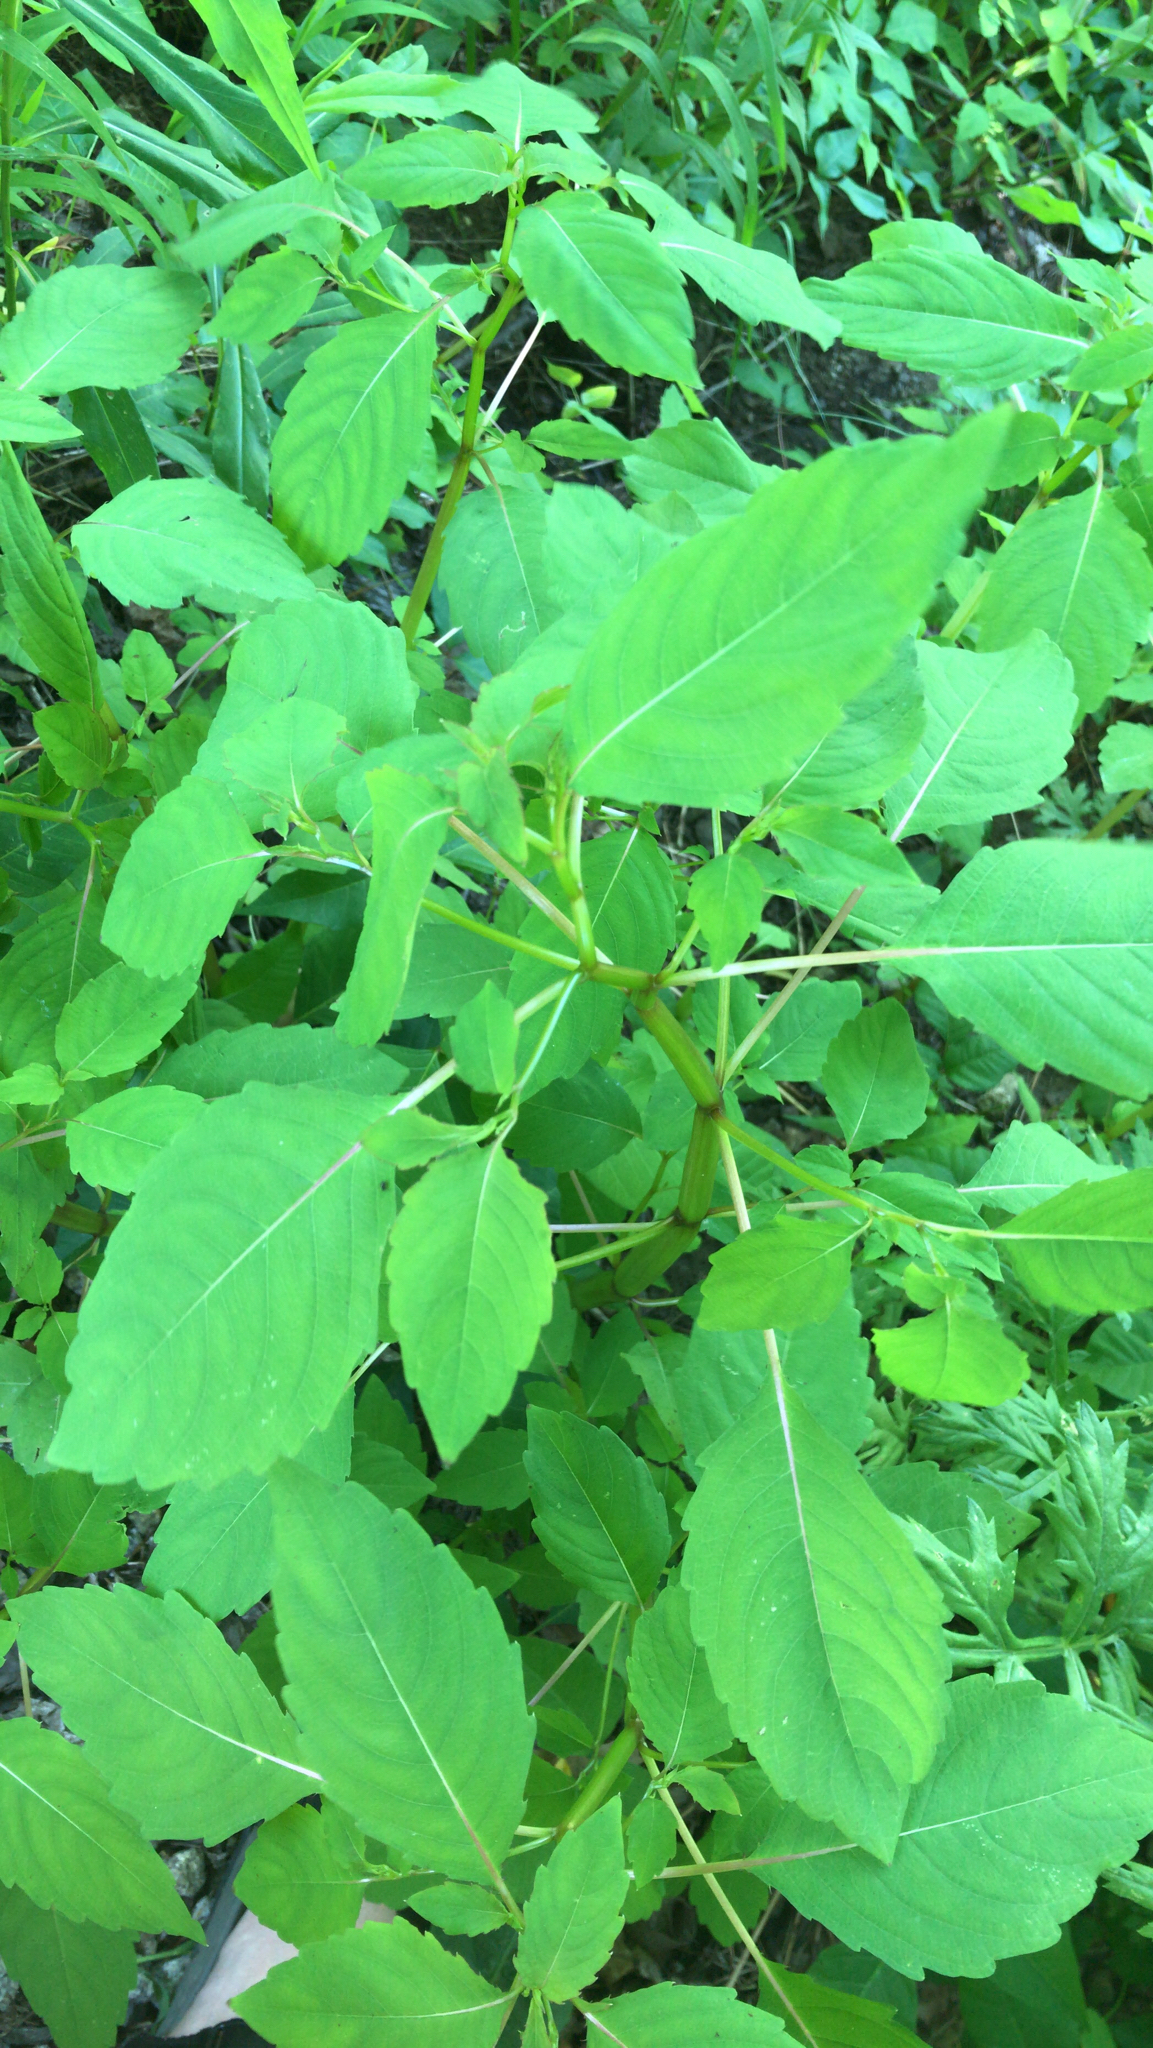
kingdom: Plantae
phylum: Tracheophyta
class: Magnoliopsida
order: Ericales
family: Balsaminaceae
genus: Impatiens
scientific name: Impatiens
